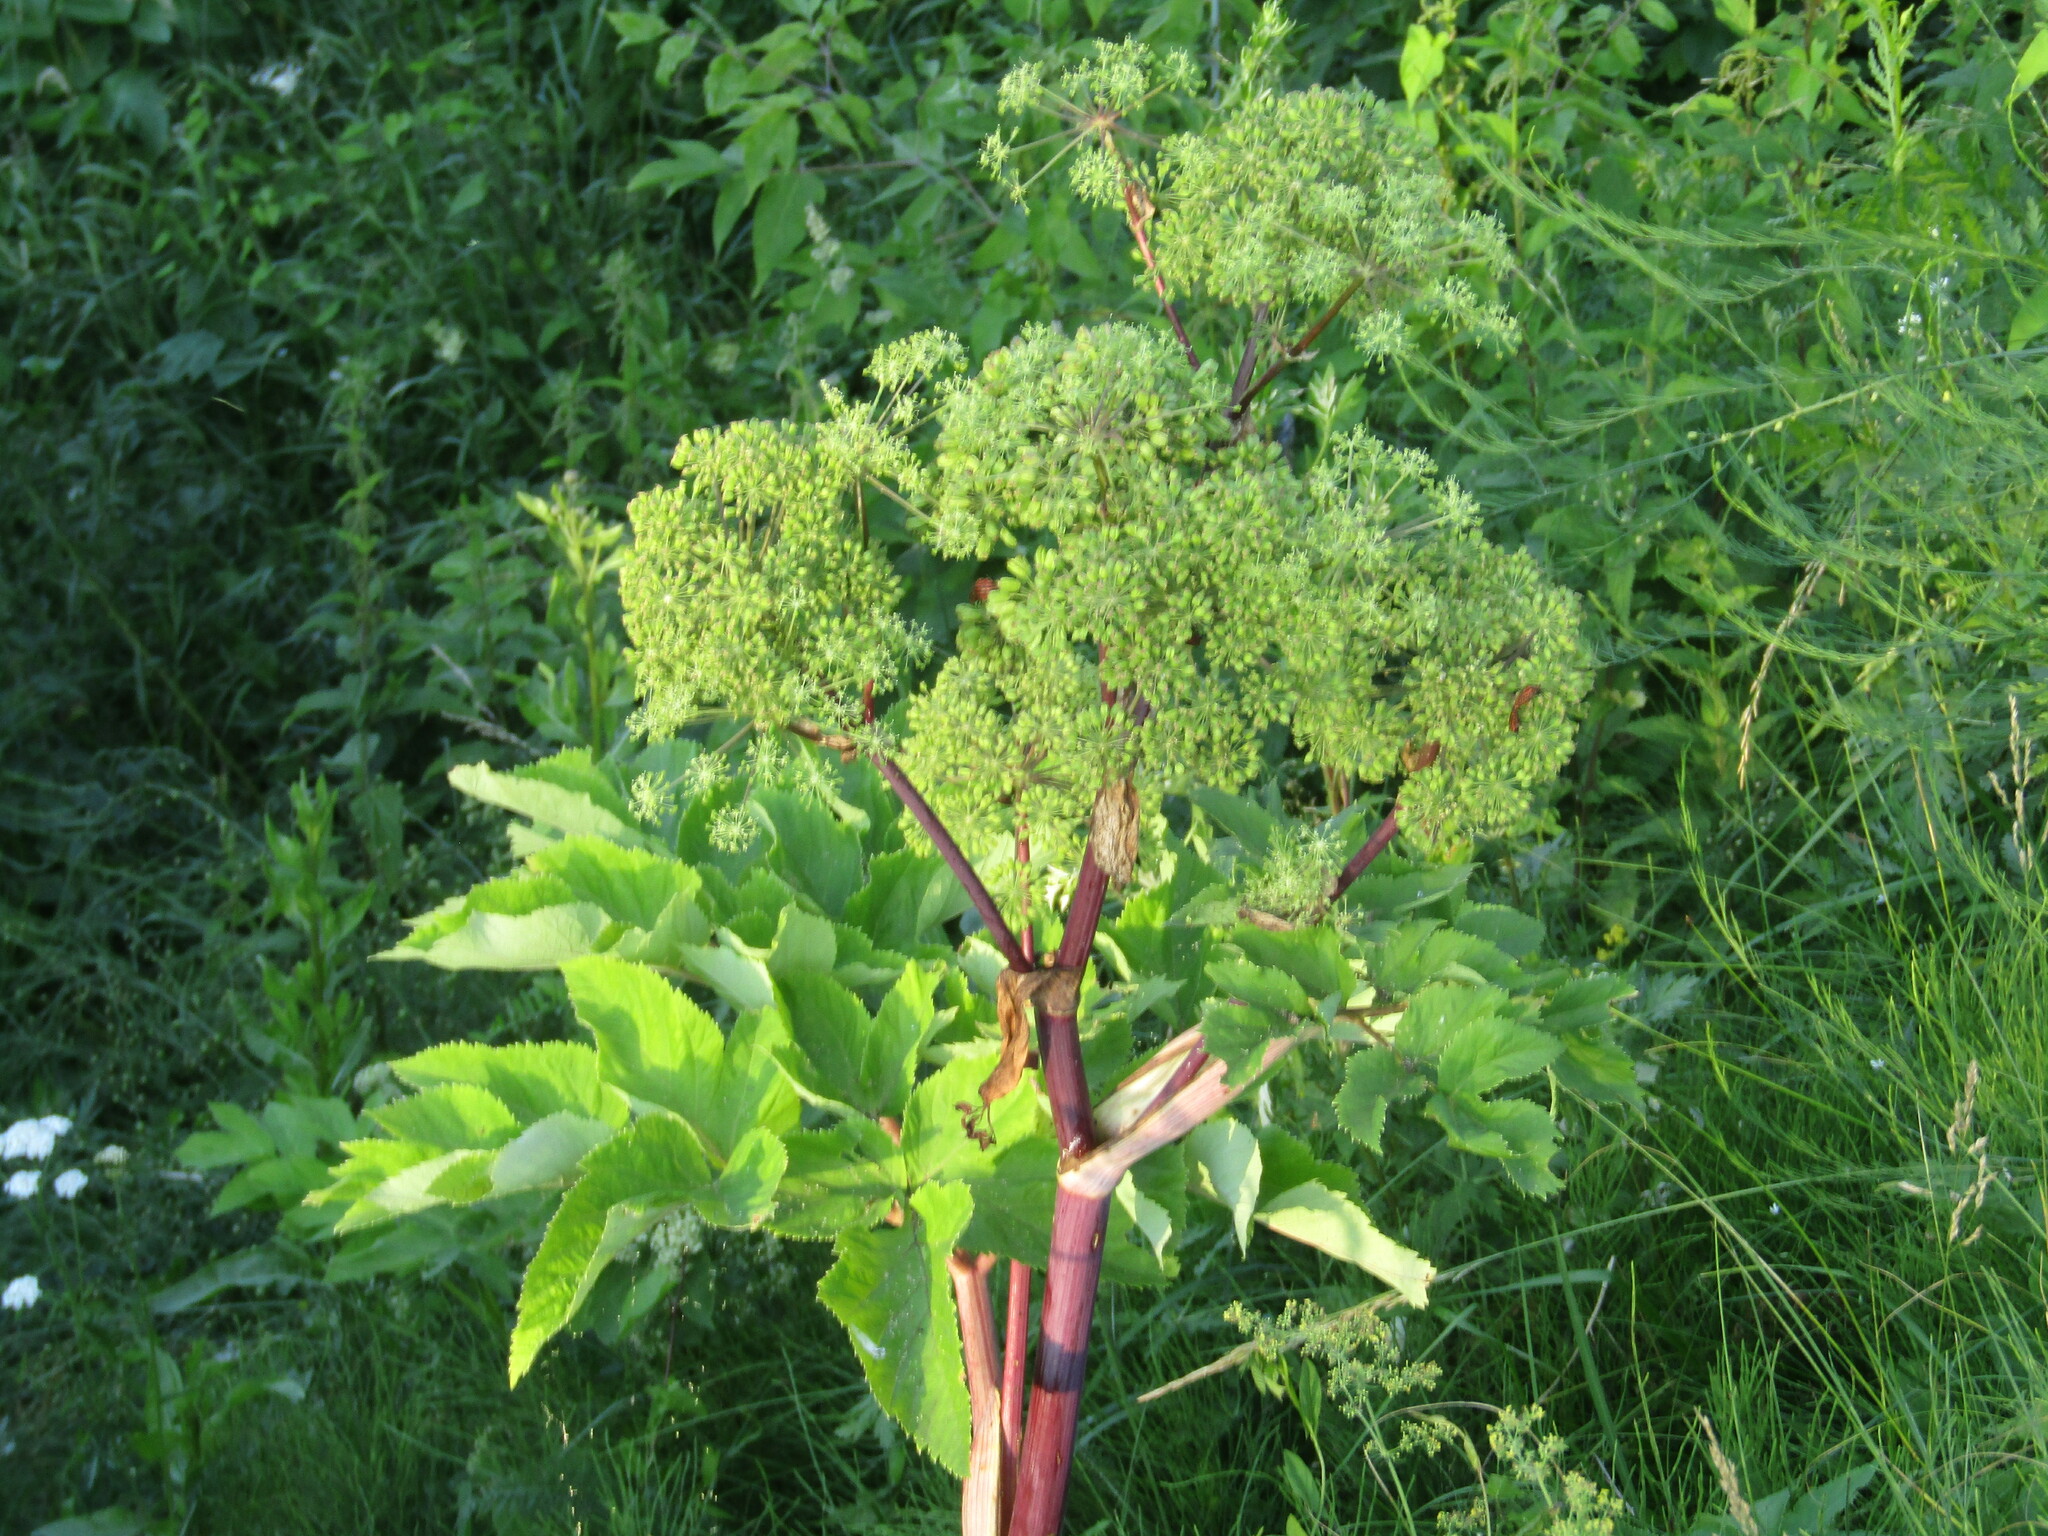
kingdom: Plantae
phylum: Tracheophyta
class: Magnoliopsida
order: Apiales
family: Apiaceae
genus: Angelica
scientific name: Angelica archangelica
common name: Garden angelica
